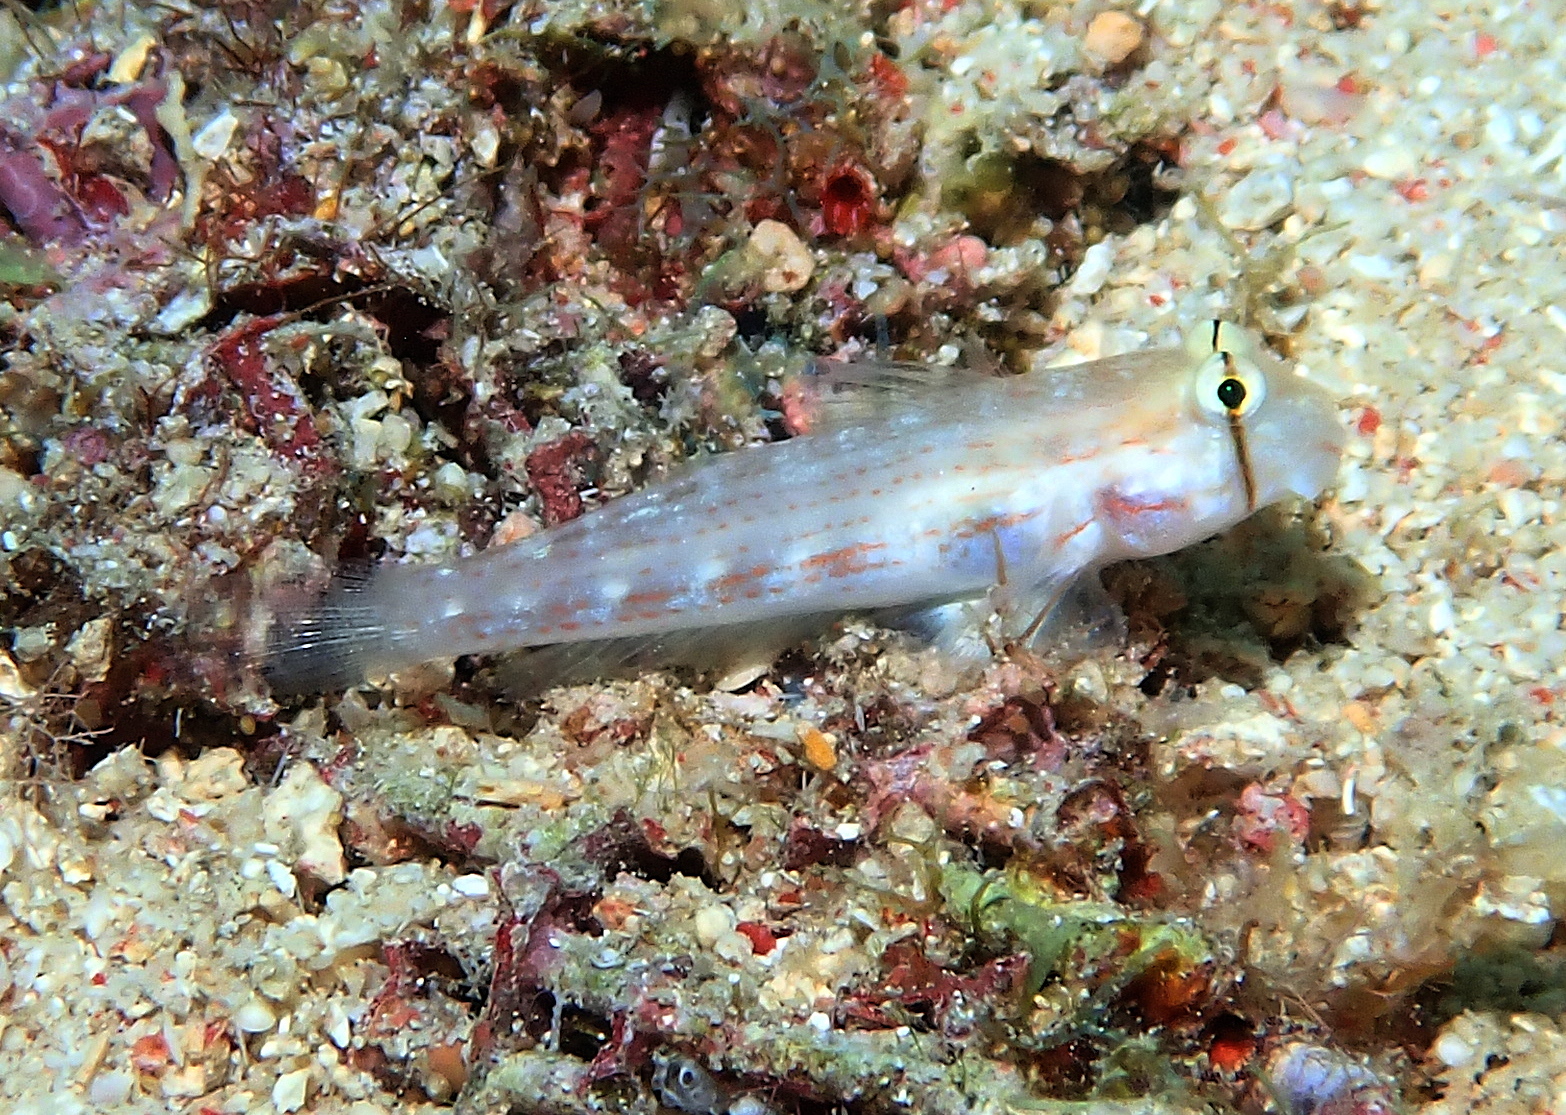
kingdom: Animalia
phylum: Chordata
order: Perciformes
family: Gobiidae
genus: Gnatholepis
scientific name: Gnatholepis cauerensis
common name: Bridled goby
